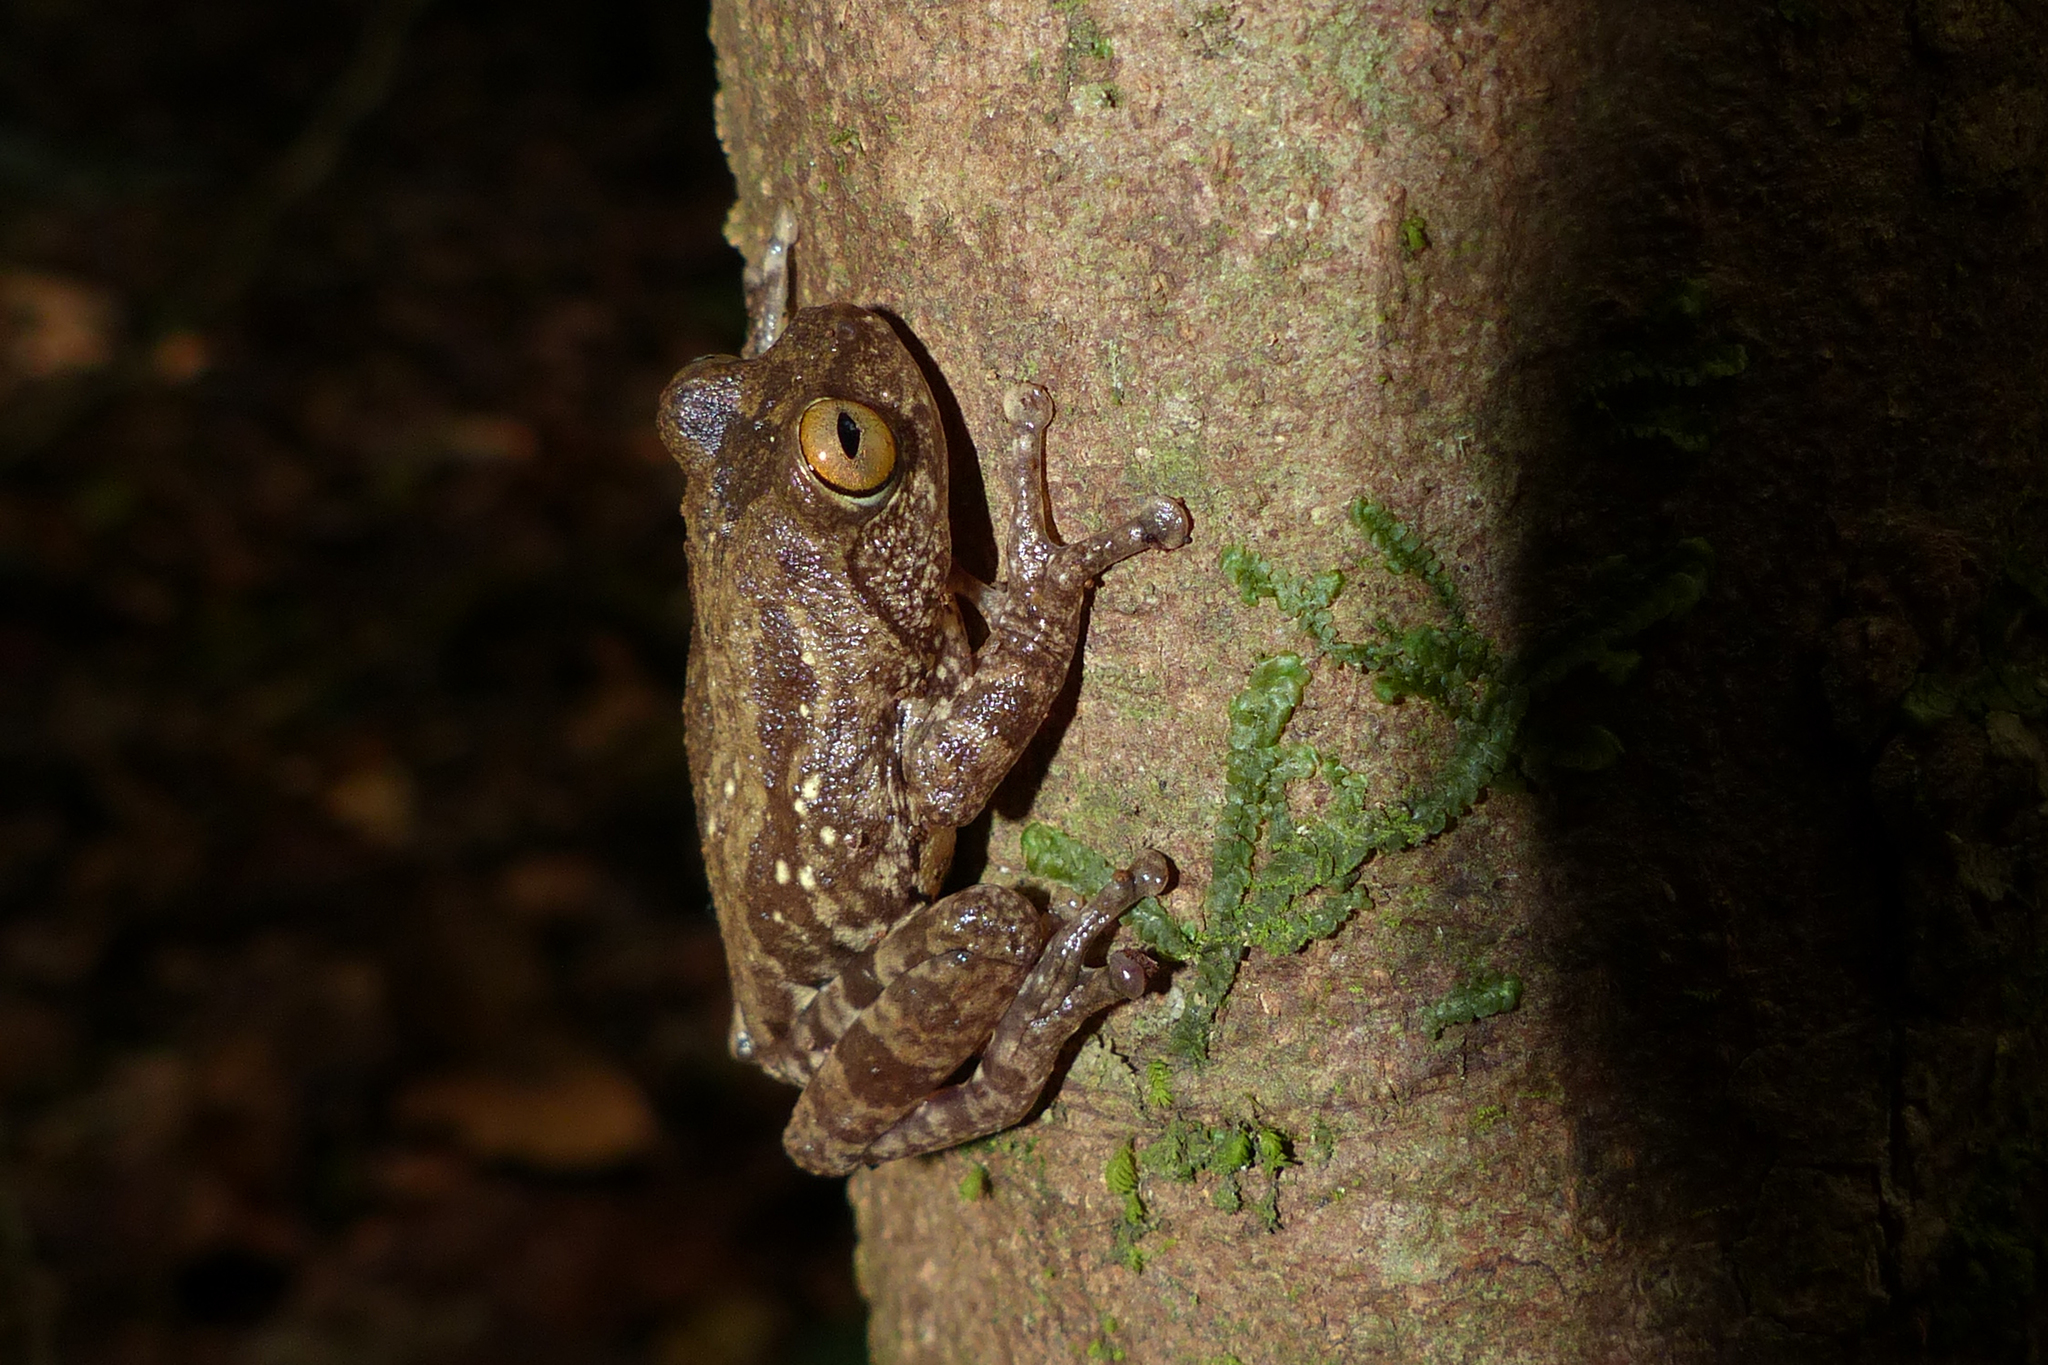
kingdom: Animalia
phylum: Chordata
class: Amphibia
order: Anura
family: Rhacophoridae
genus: Raorchestes
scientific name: Raorchestes ponmudi
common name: Large ponmudi bush frog
